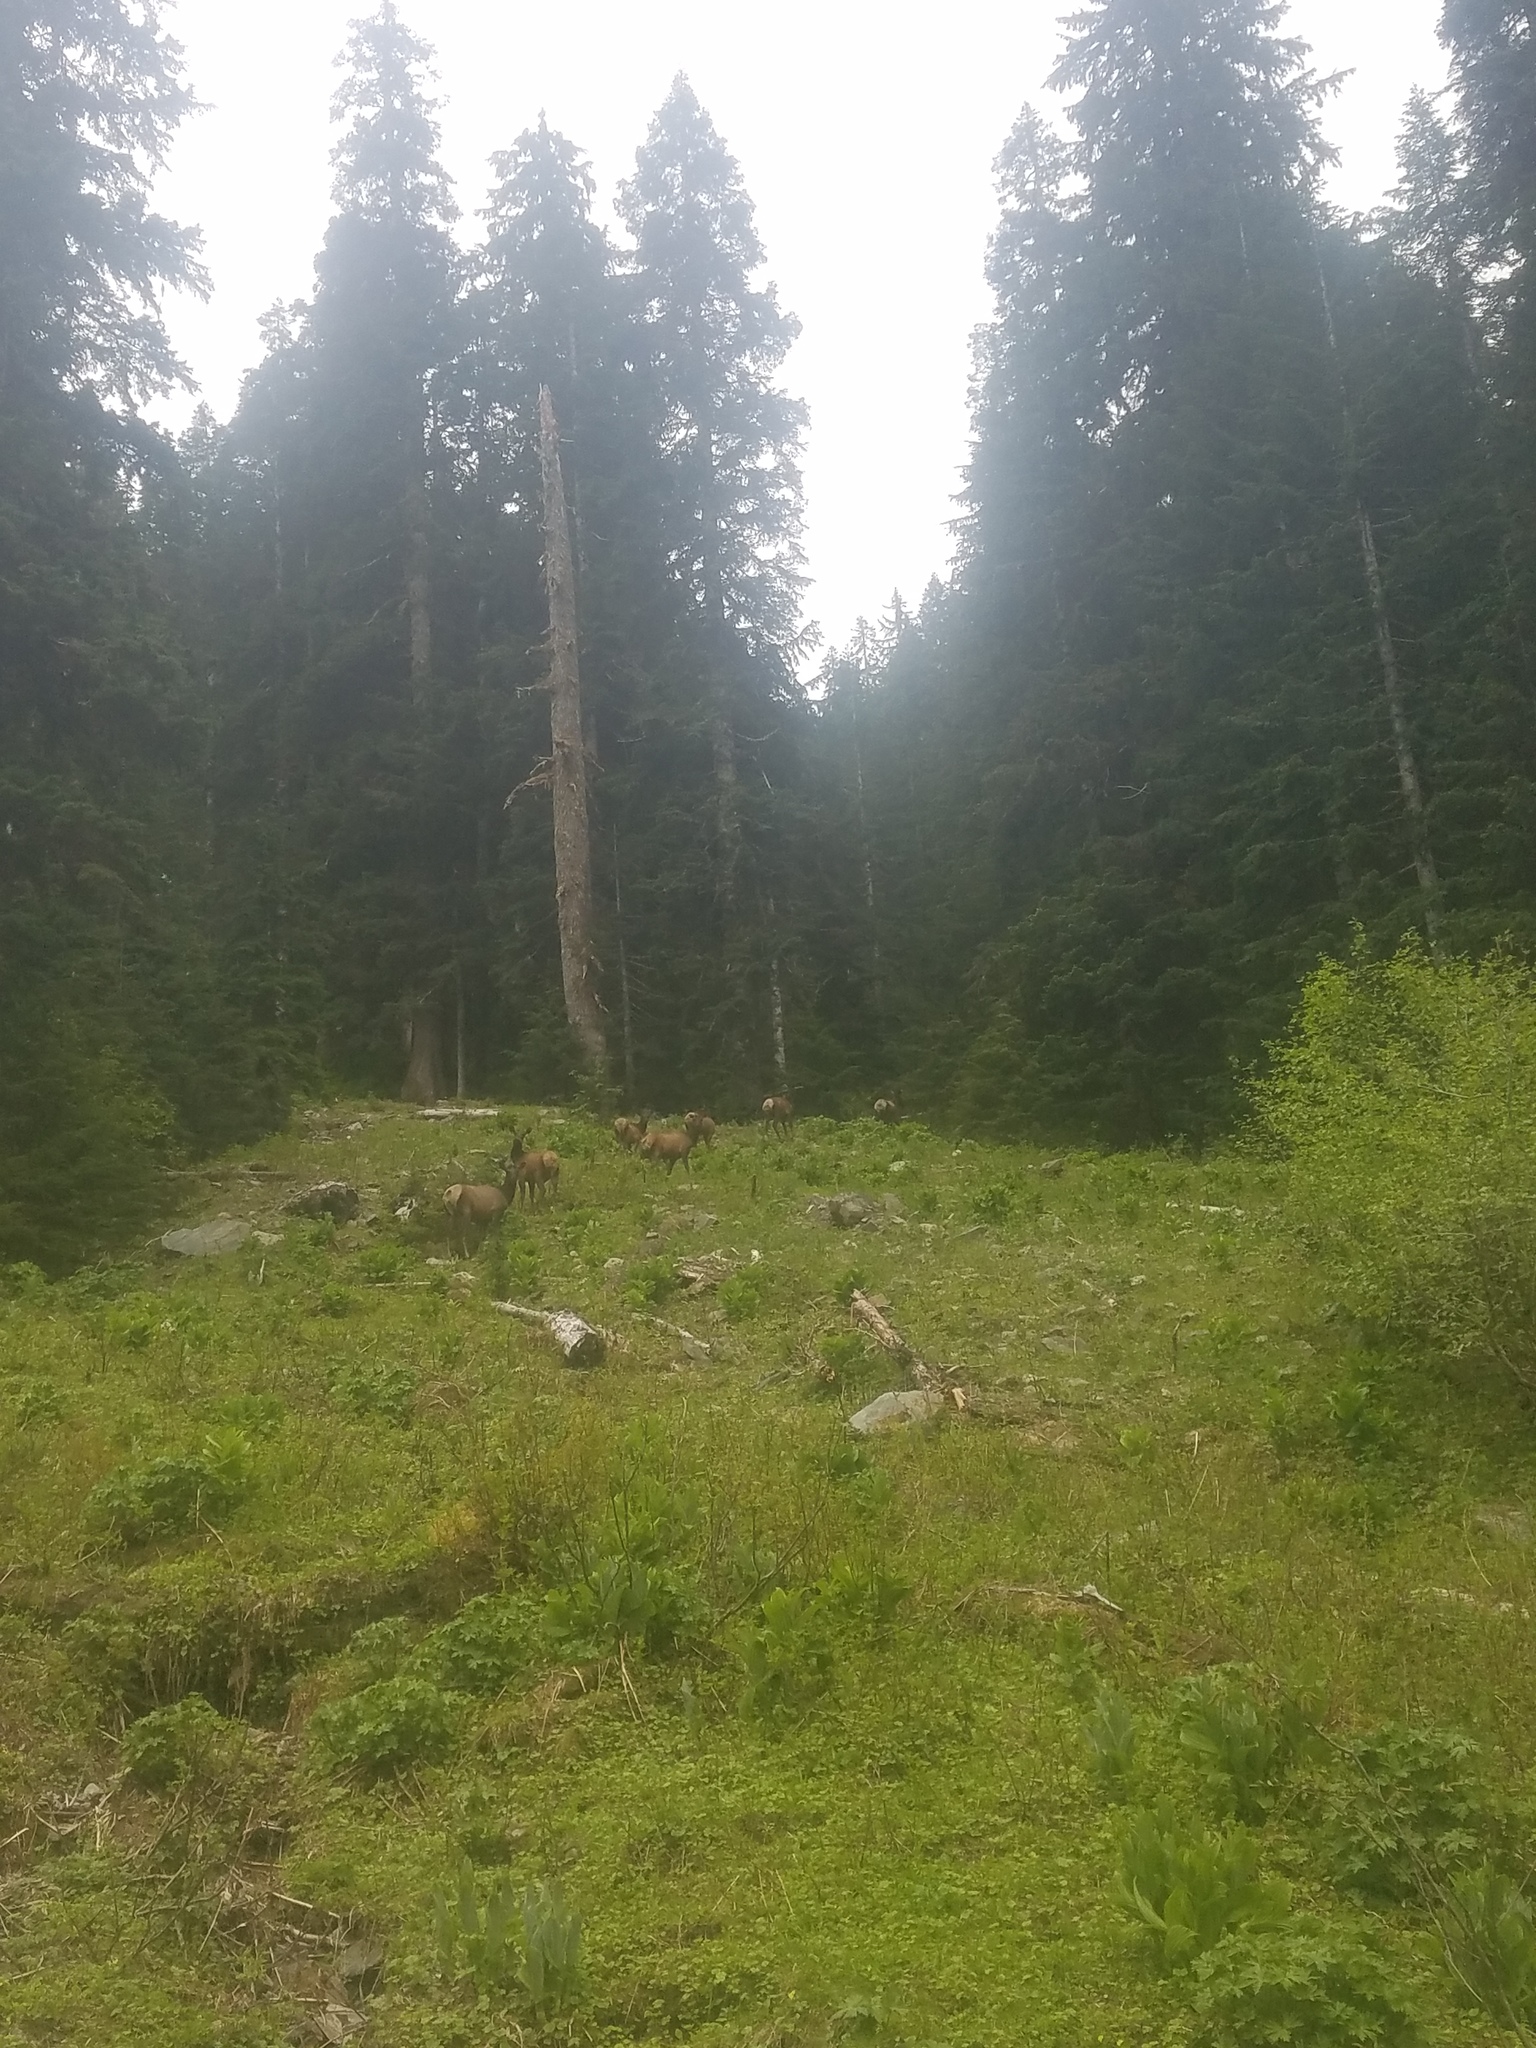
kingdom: Animalia
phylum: Chordata
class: Mammalia
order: Artiodactyla
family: Cervidae
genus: Cervus
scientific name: Cervus elaphus
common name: Red deer
